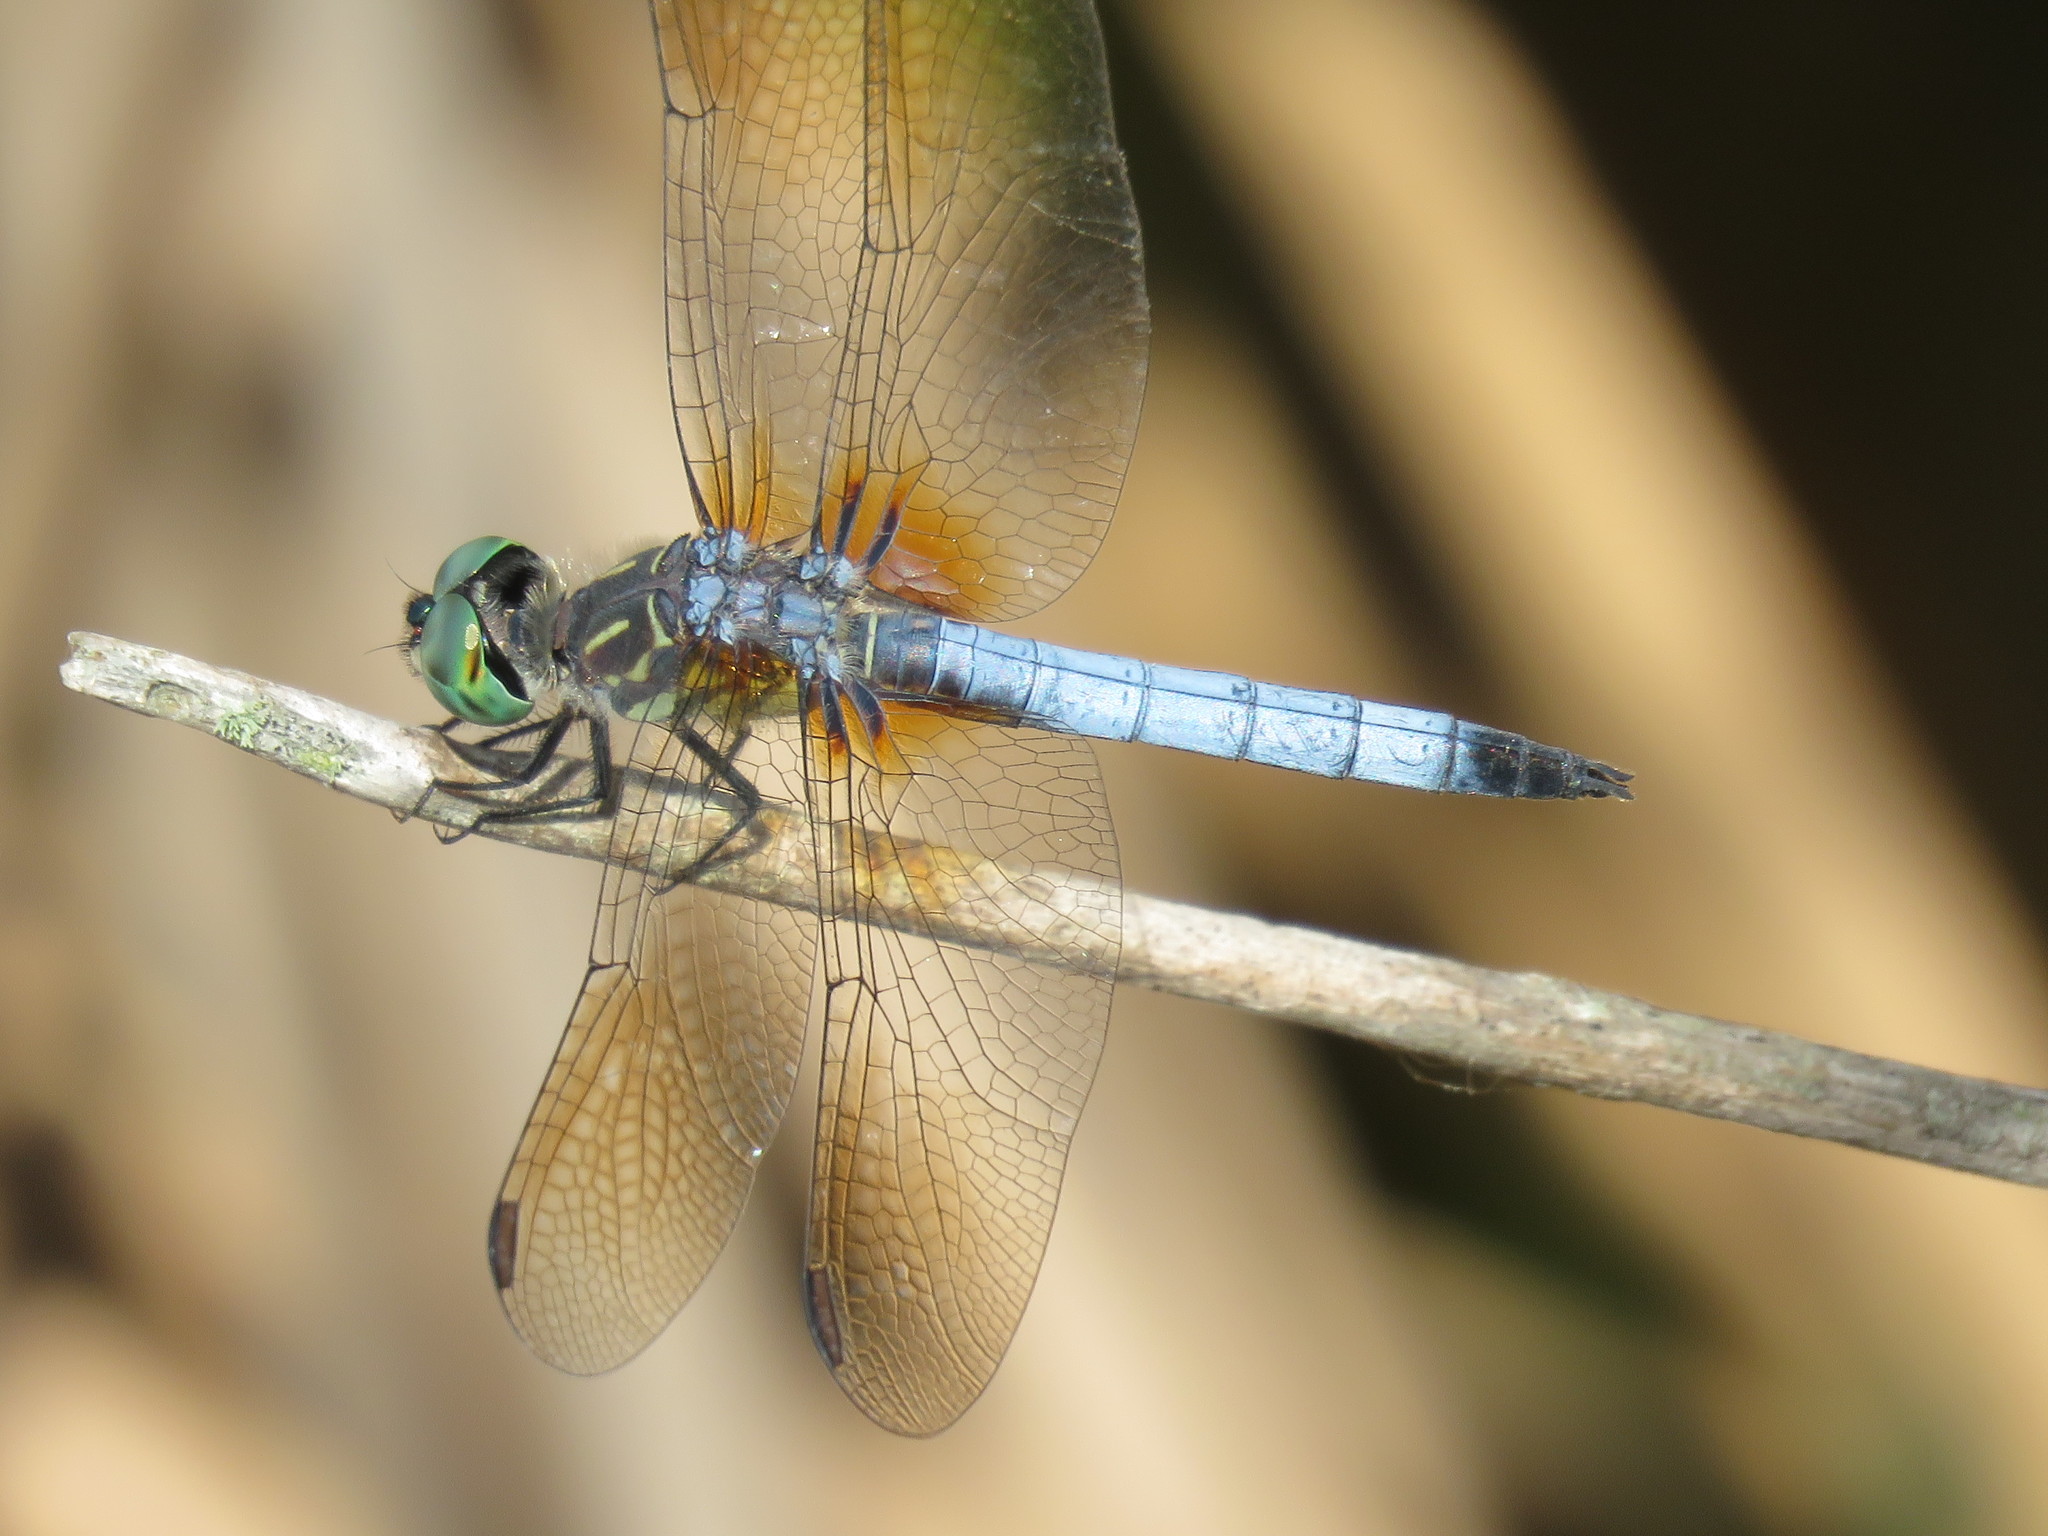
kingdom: Animalia
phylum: Arthropoda
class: Insecta
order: Odonata
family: Libellulidae
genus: Pachydiplax
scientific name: Pachydiplax longipennis
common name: Blue dasher
